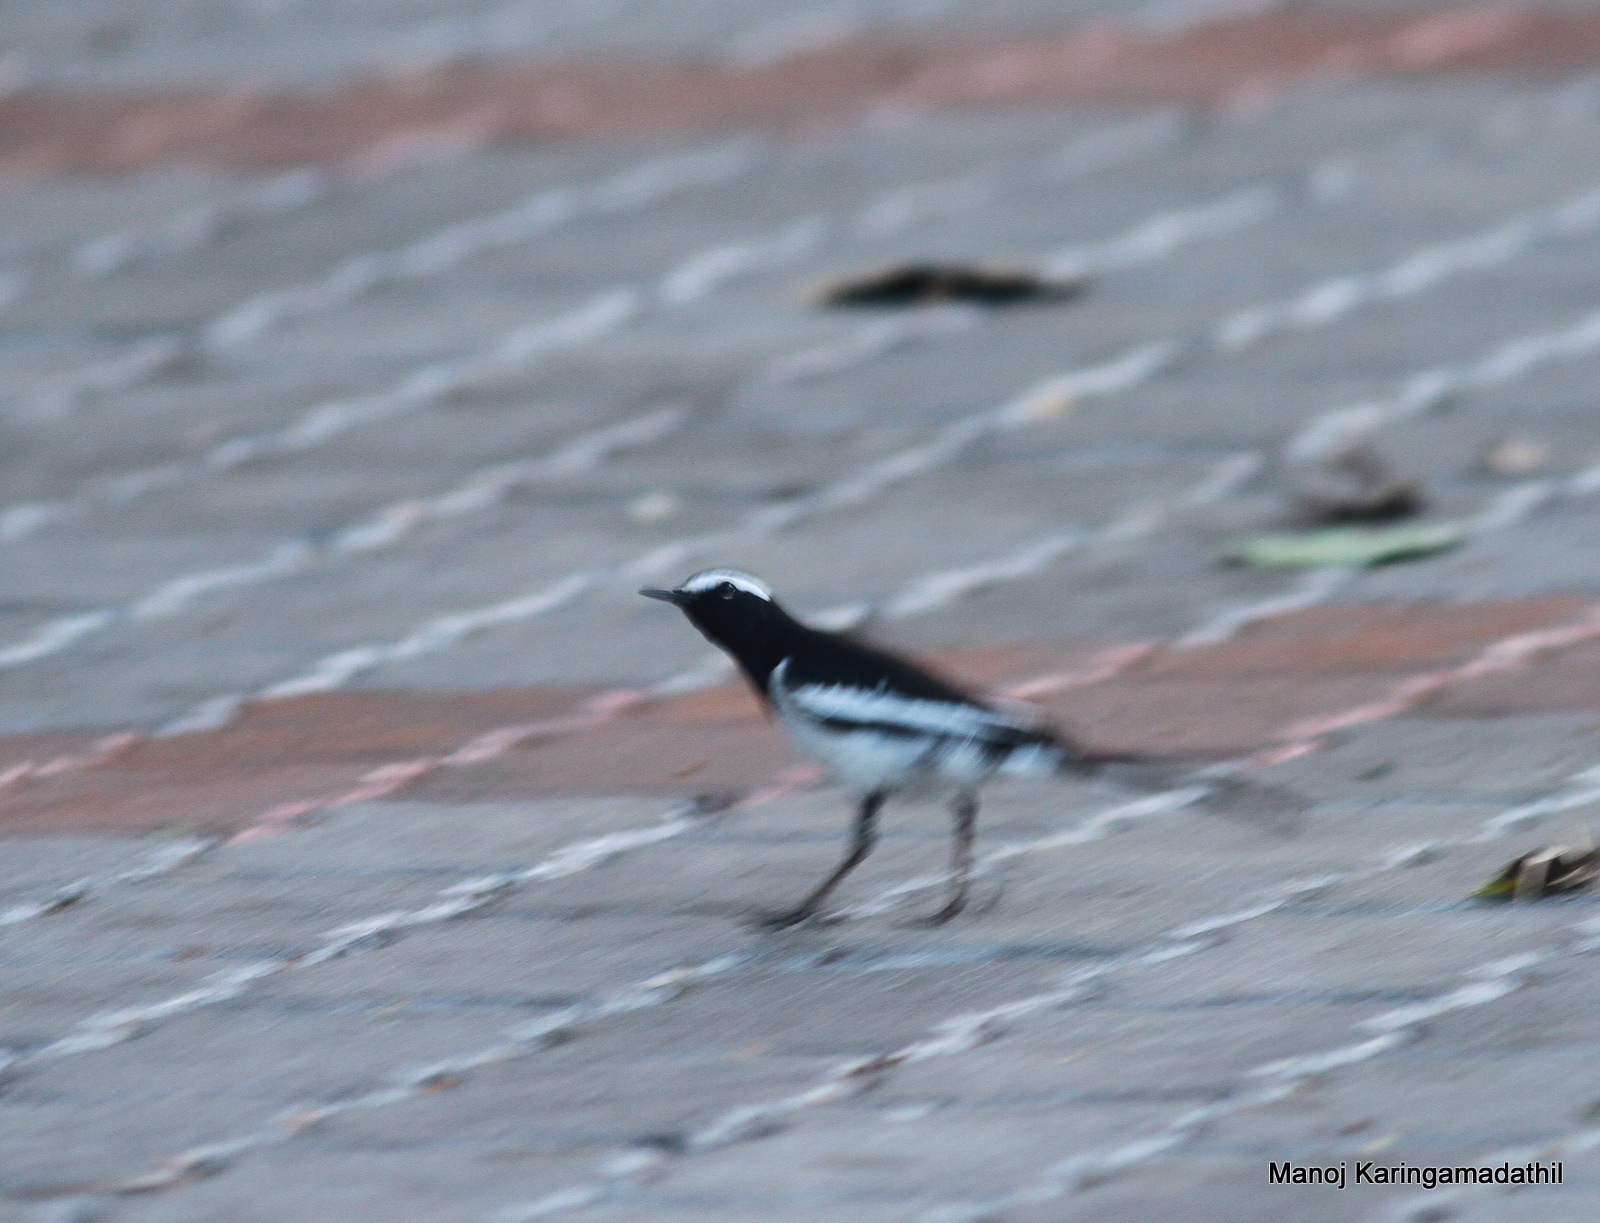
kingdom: Animalia
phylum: Chordata
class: Aves
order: Passeriformes
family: Motacillidae
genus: Motacilla
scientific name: Motacilla maderaspatensis
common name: White-browed wagtail
